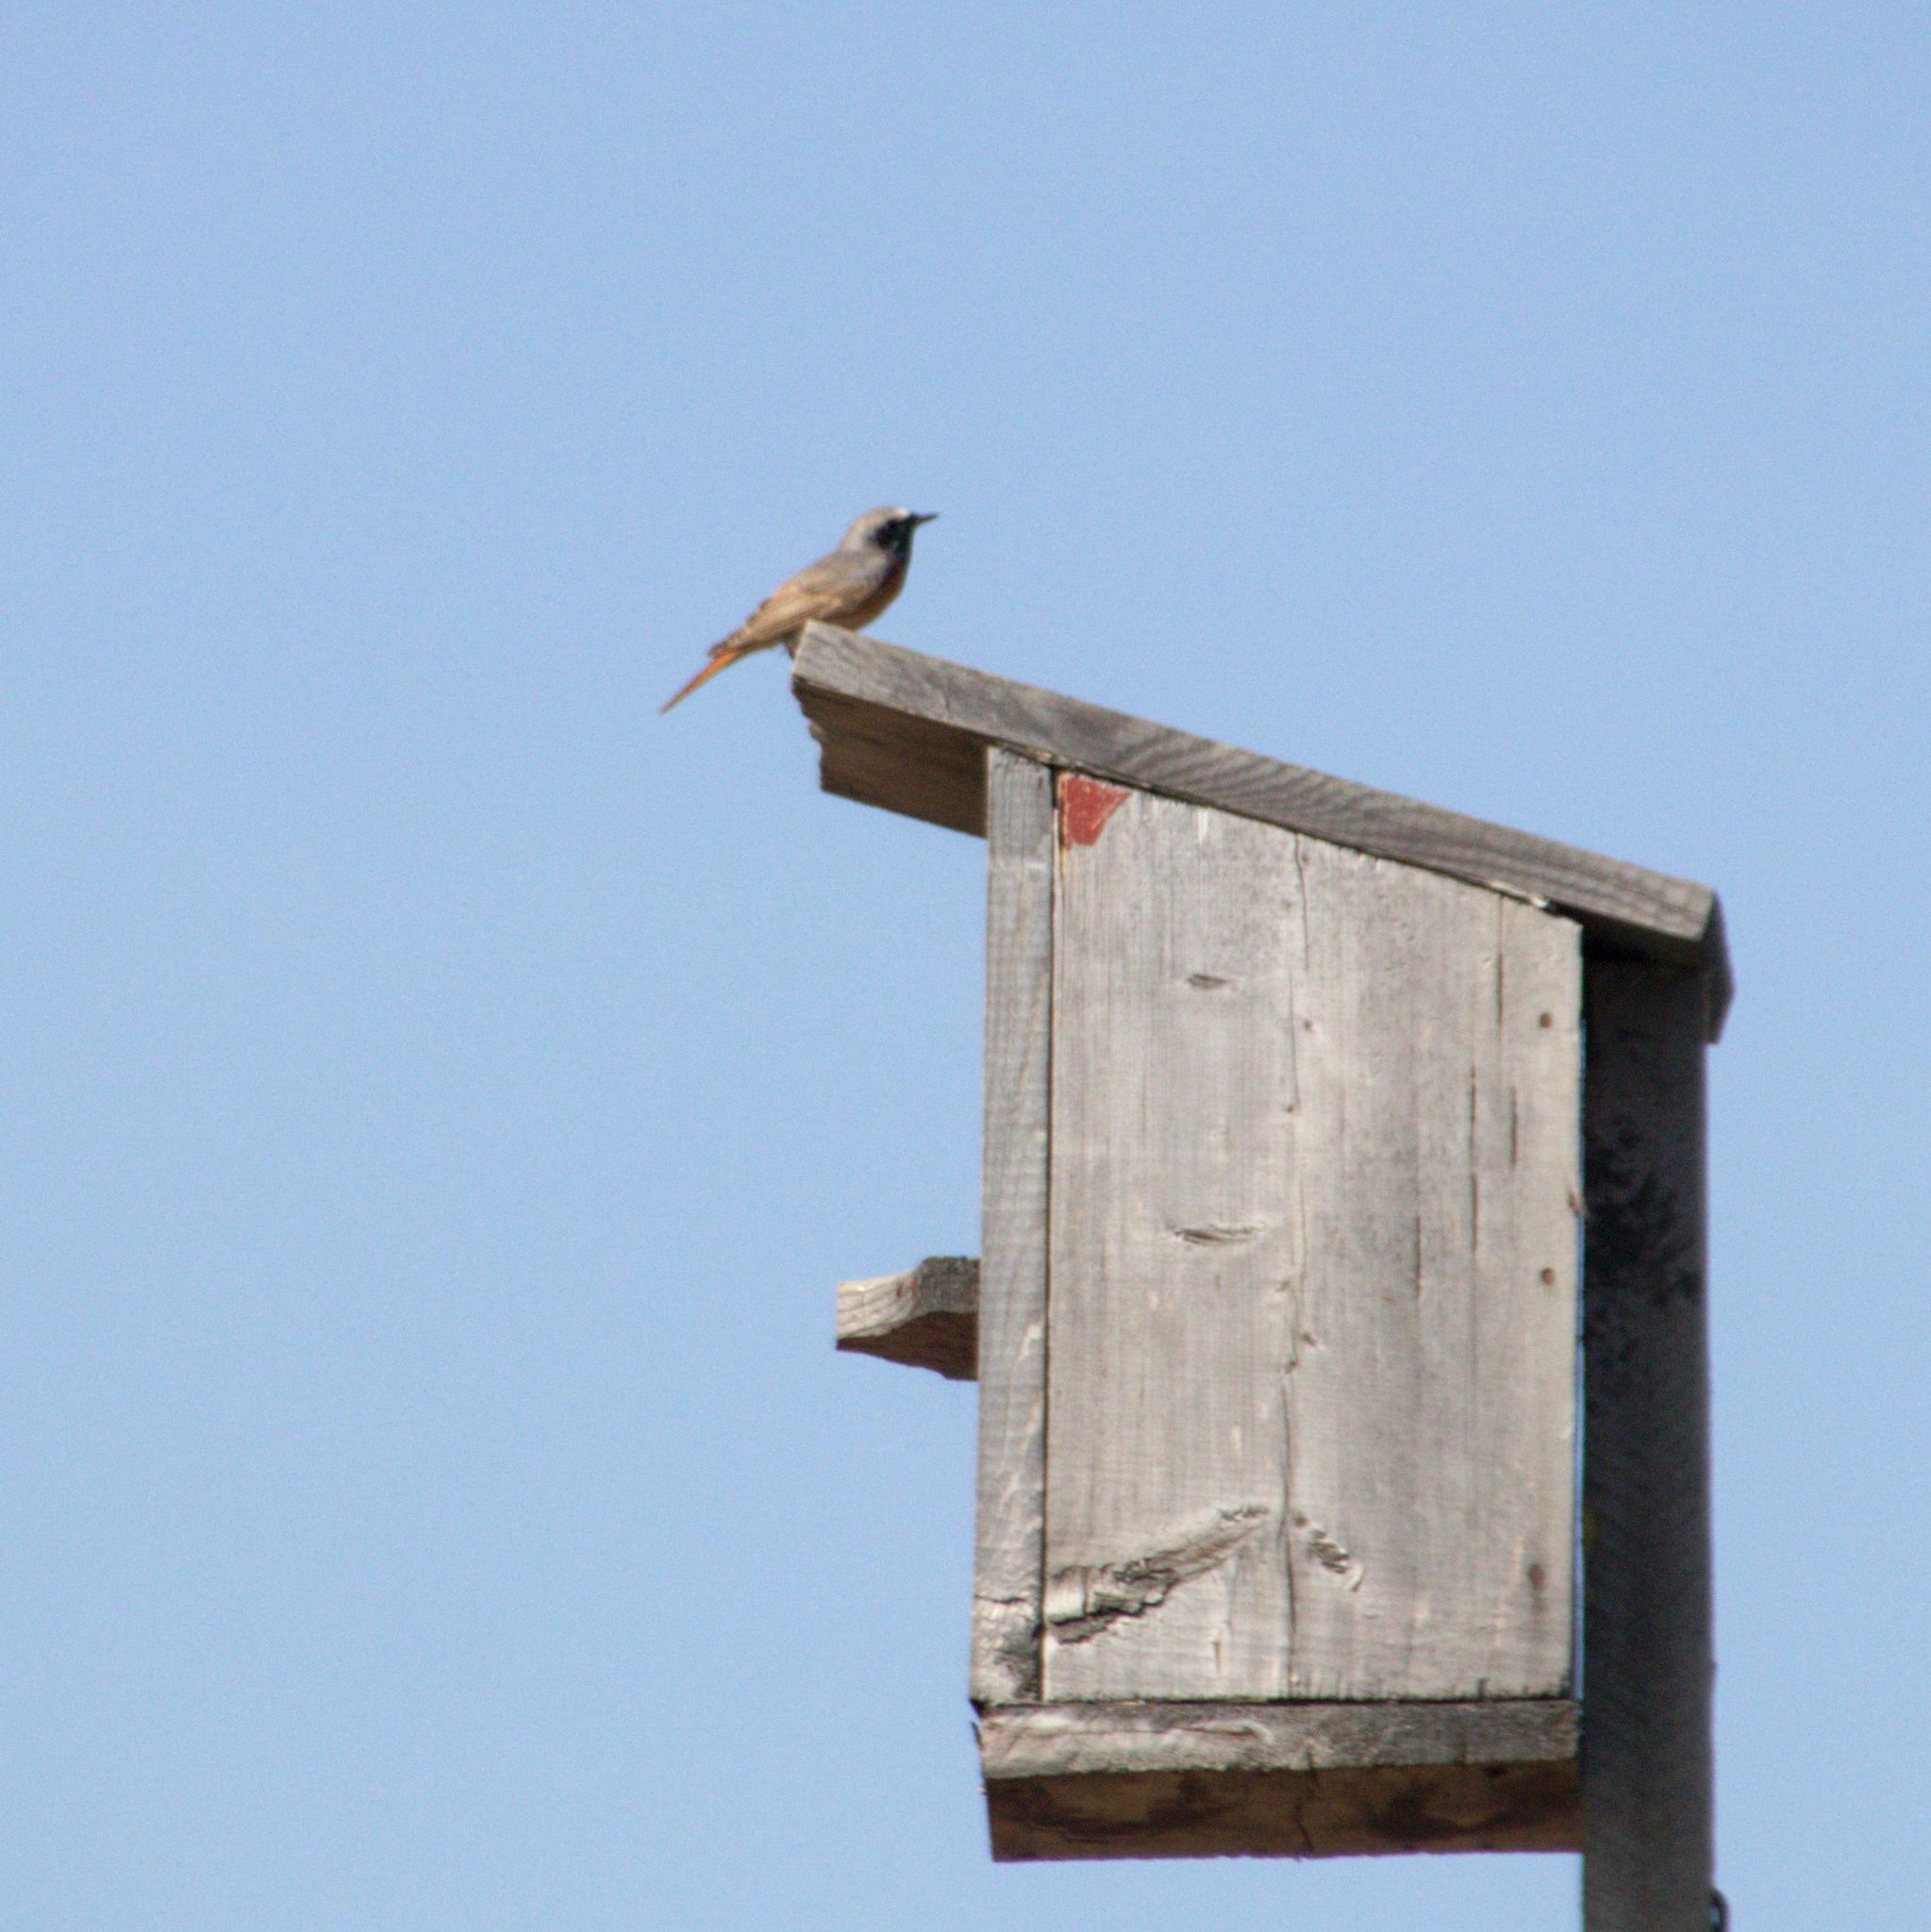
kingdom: Animalia
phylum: Chordata
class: Aves
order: Passeriformes
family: Muscicapidae
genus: Phoenicurus
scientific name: Phoenicurus phoenicurus
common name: Common redstart
